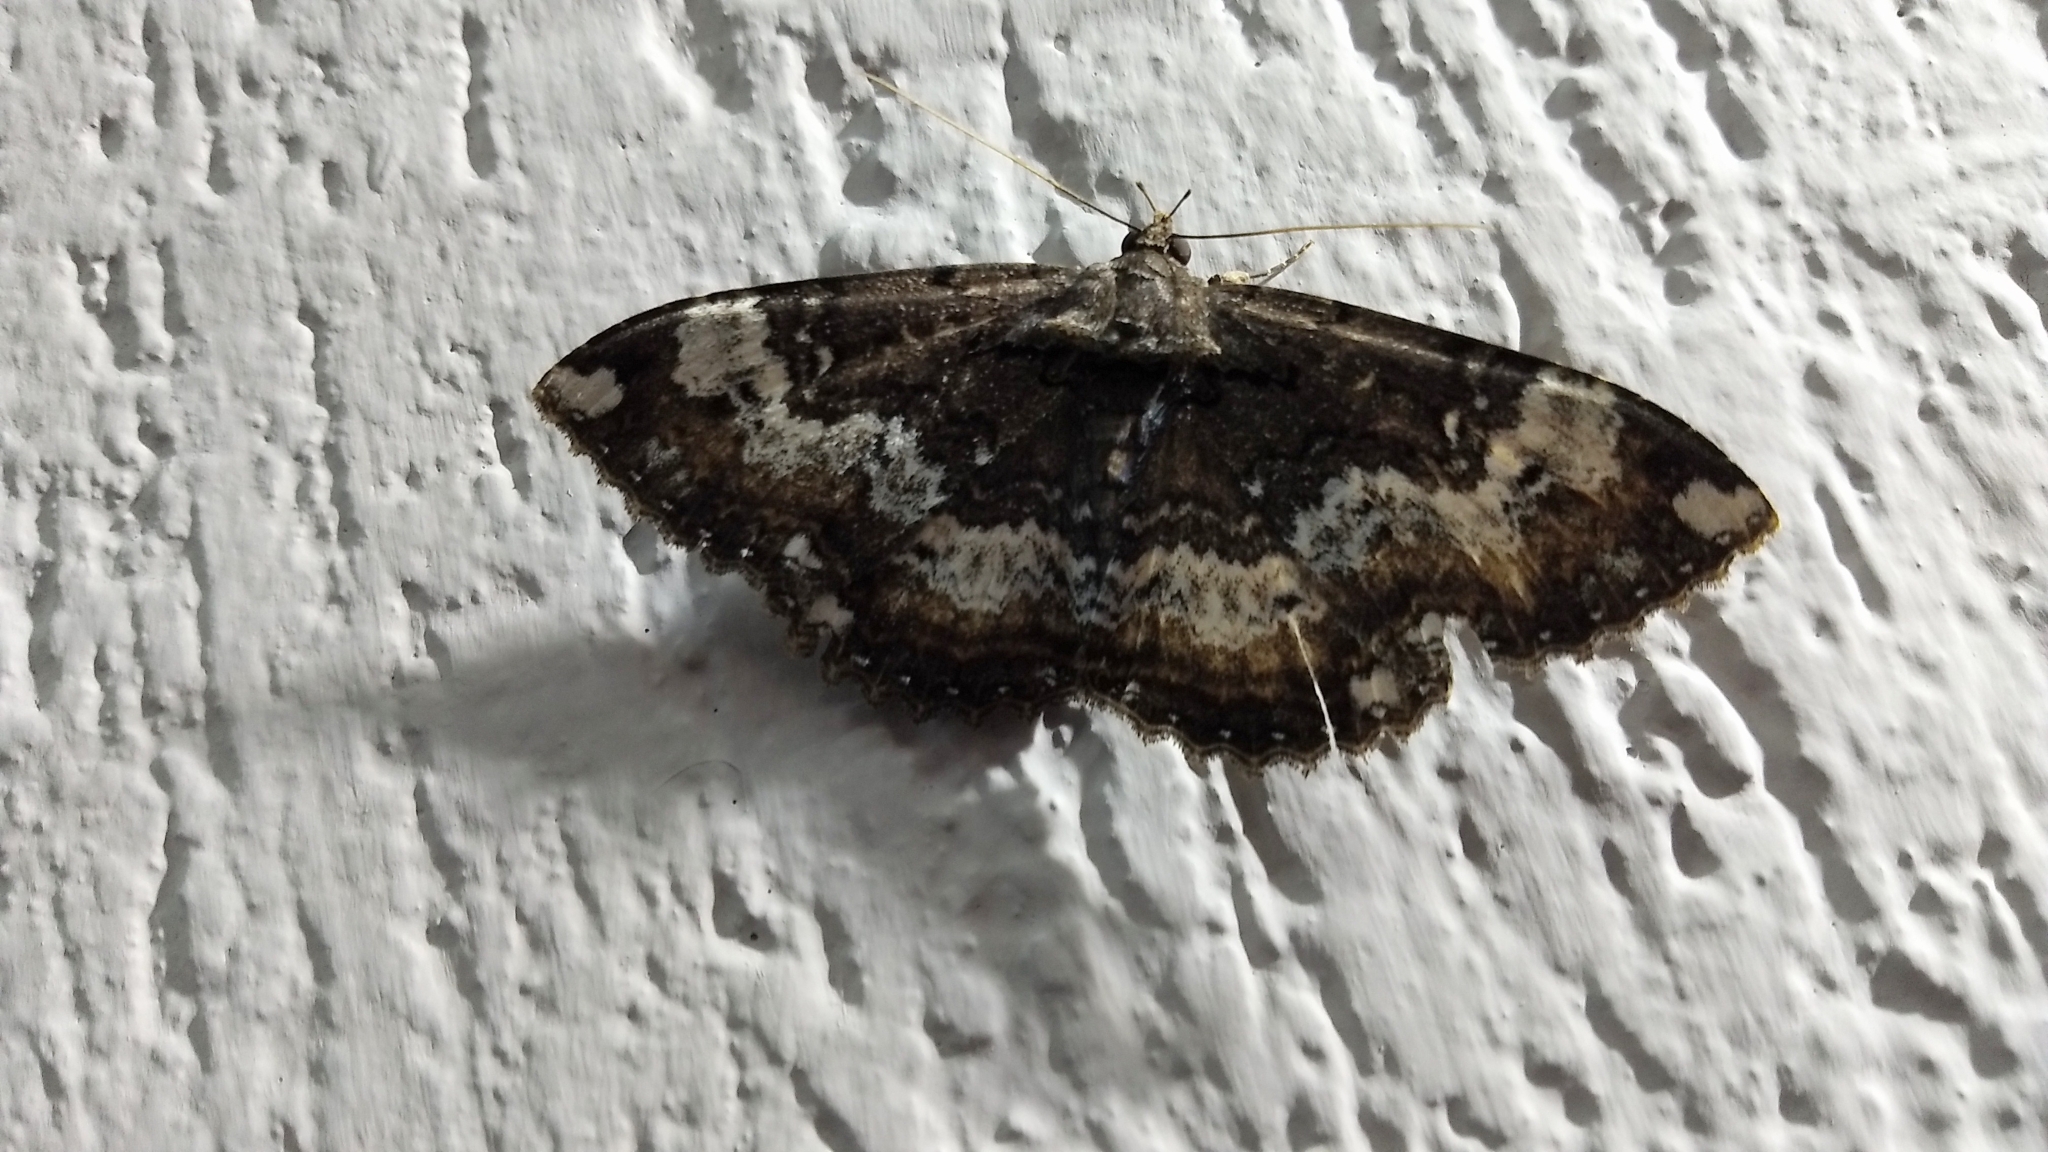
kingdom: Animalia
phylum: Arthropoda
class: Insecta
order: Lepidoptera
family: Erebidae
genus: Ramphia
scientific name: Ramphia albizona
